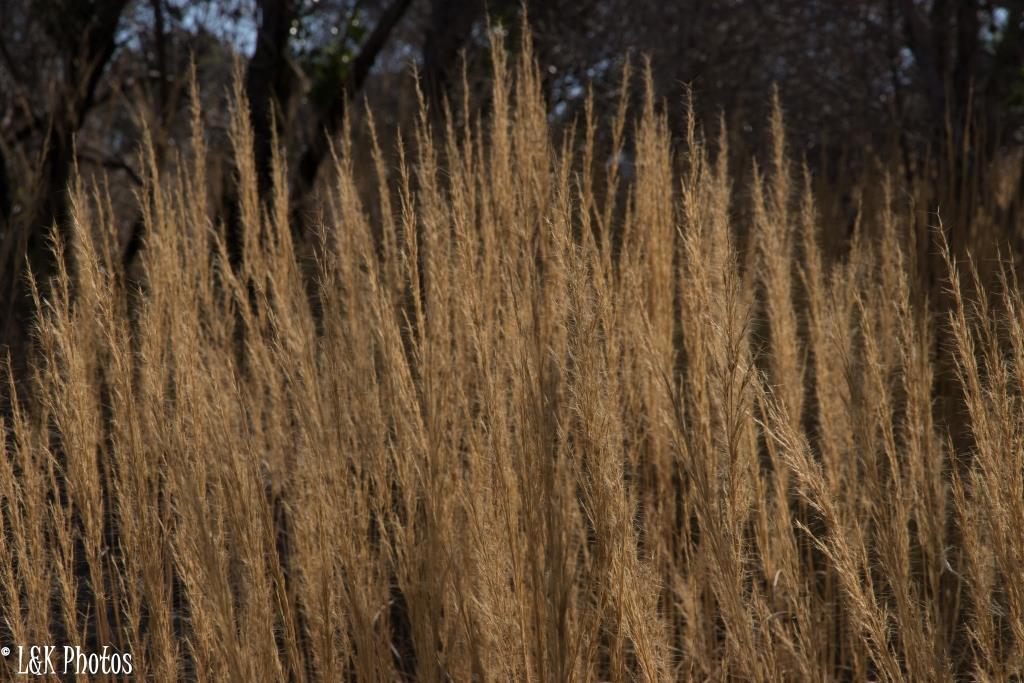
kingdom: Plantae
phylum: Tracheophyta
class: Liliopsida
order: Poales
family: Poaceae
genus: Aristida
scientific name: Aristida rufescens
